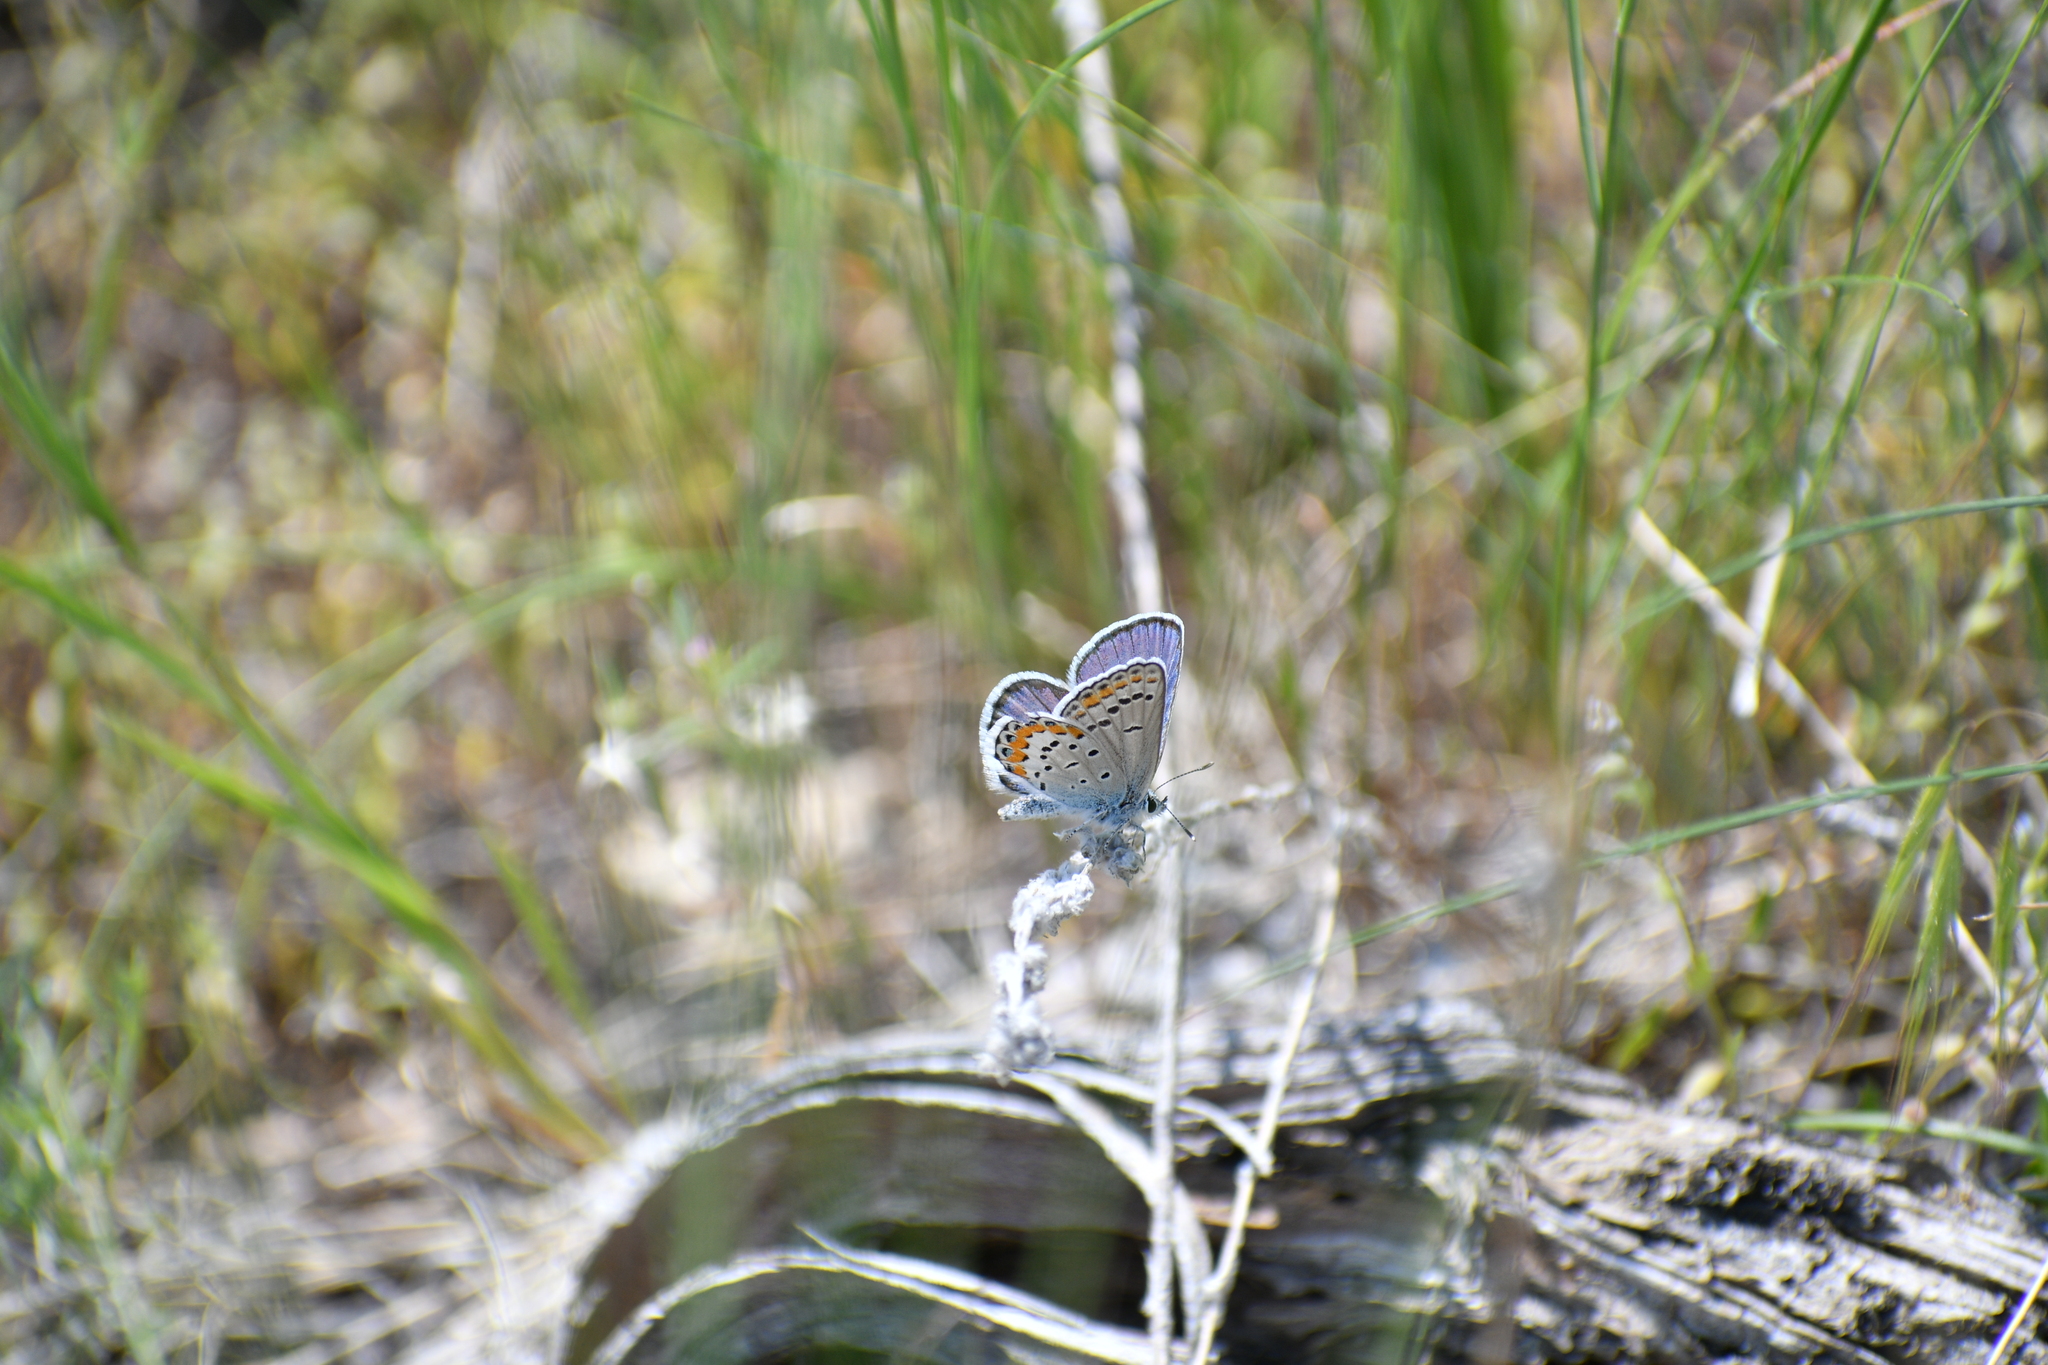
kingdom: Animalia
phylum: Arthropoda
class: Insecta
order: Lepidoptera
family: Lycaenidae
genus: Lycaeides
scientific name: Lycaeides melissa
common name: Melissa blue
